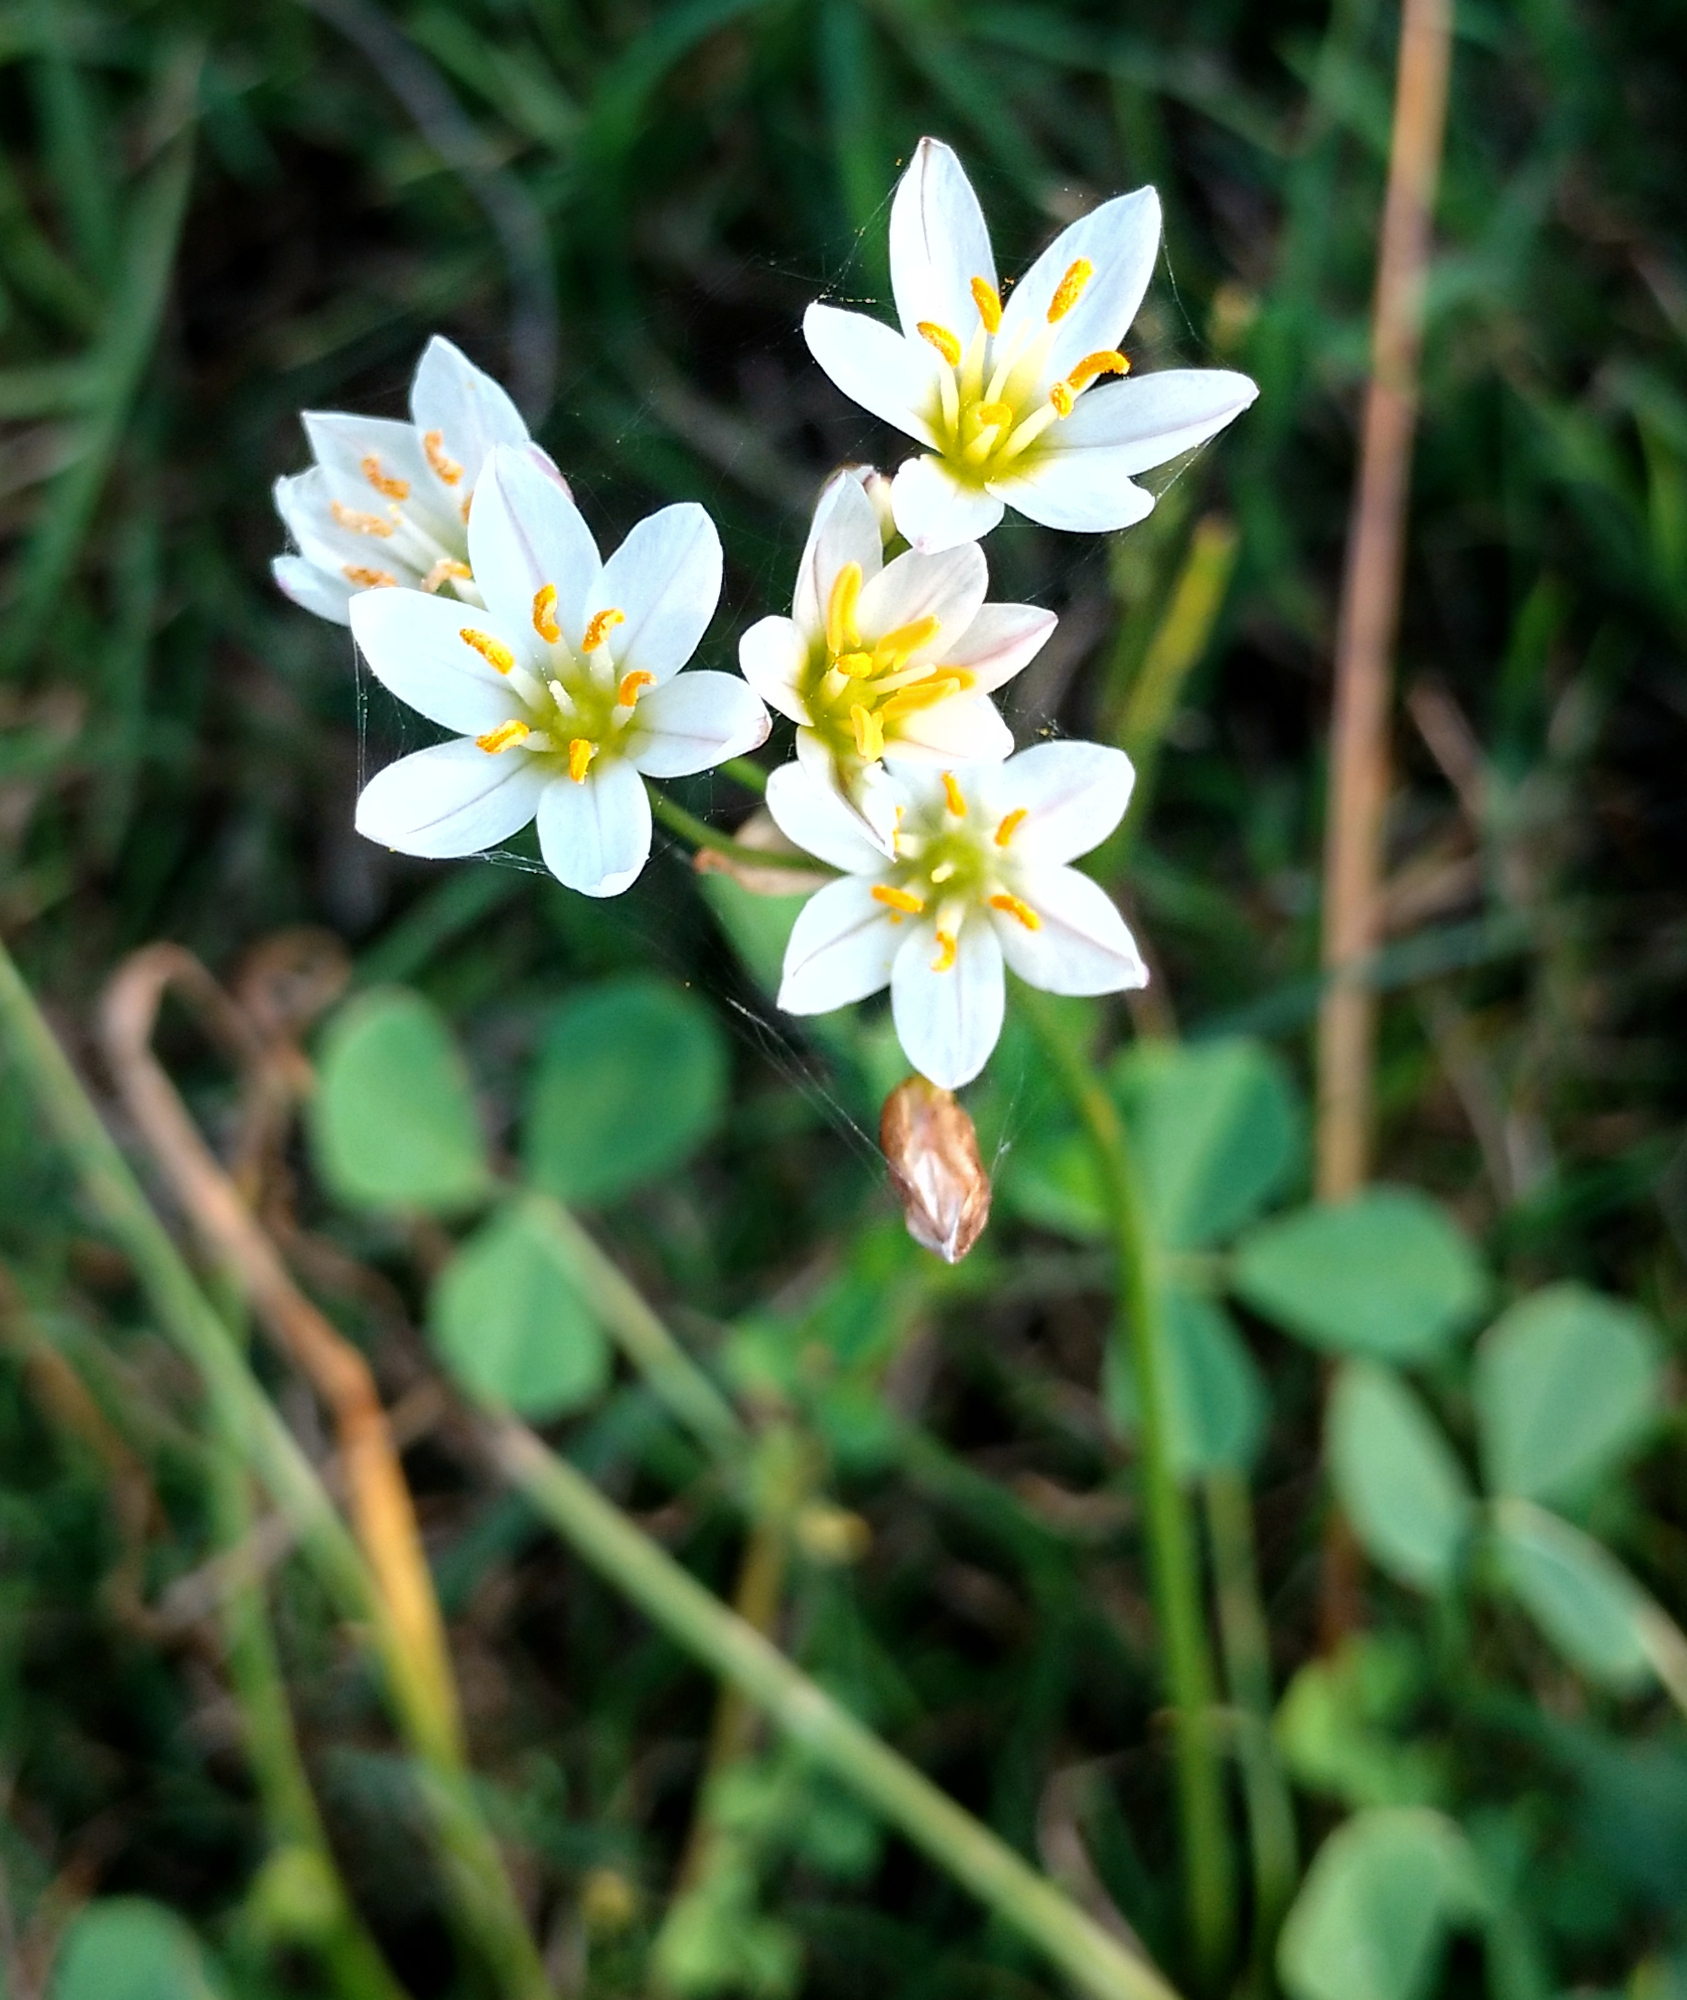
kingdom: Plantae
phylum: Tracheophyta
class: Liliopsida
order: Asparagales
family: Amaryllidaceae
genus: Nothoscordum
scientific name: Nothoscordum bivalve
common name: Crow-poison
